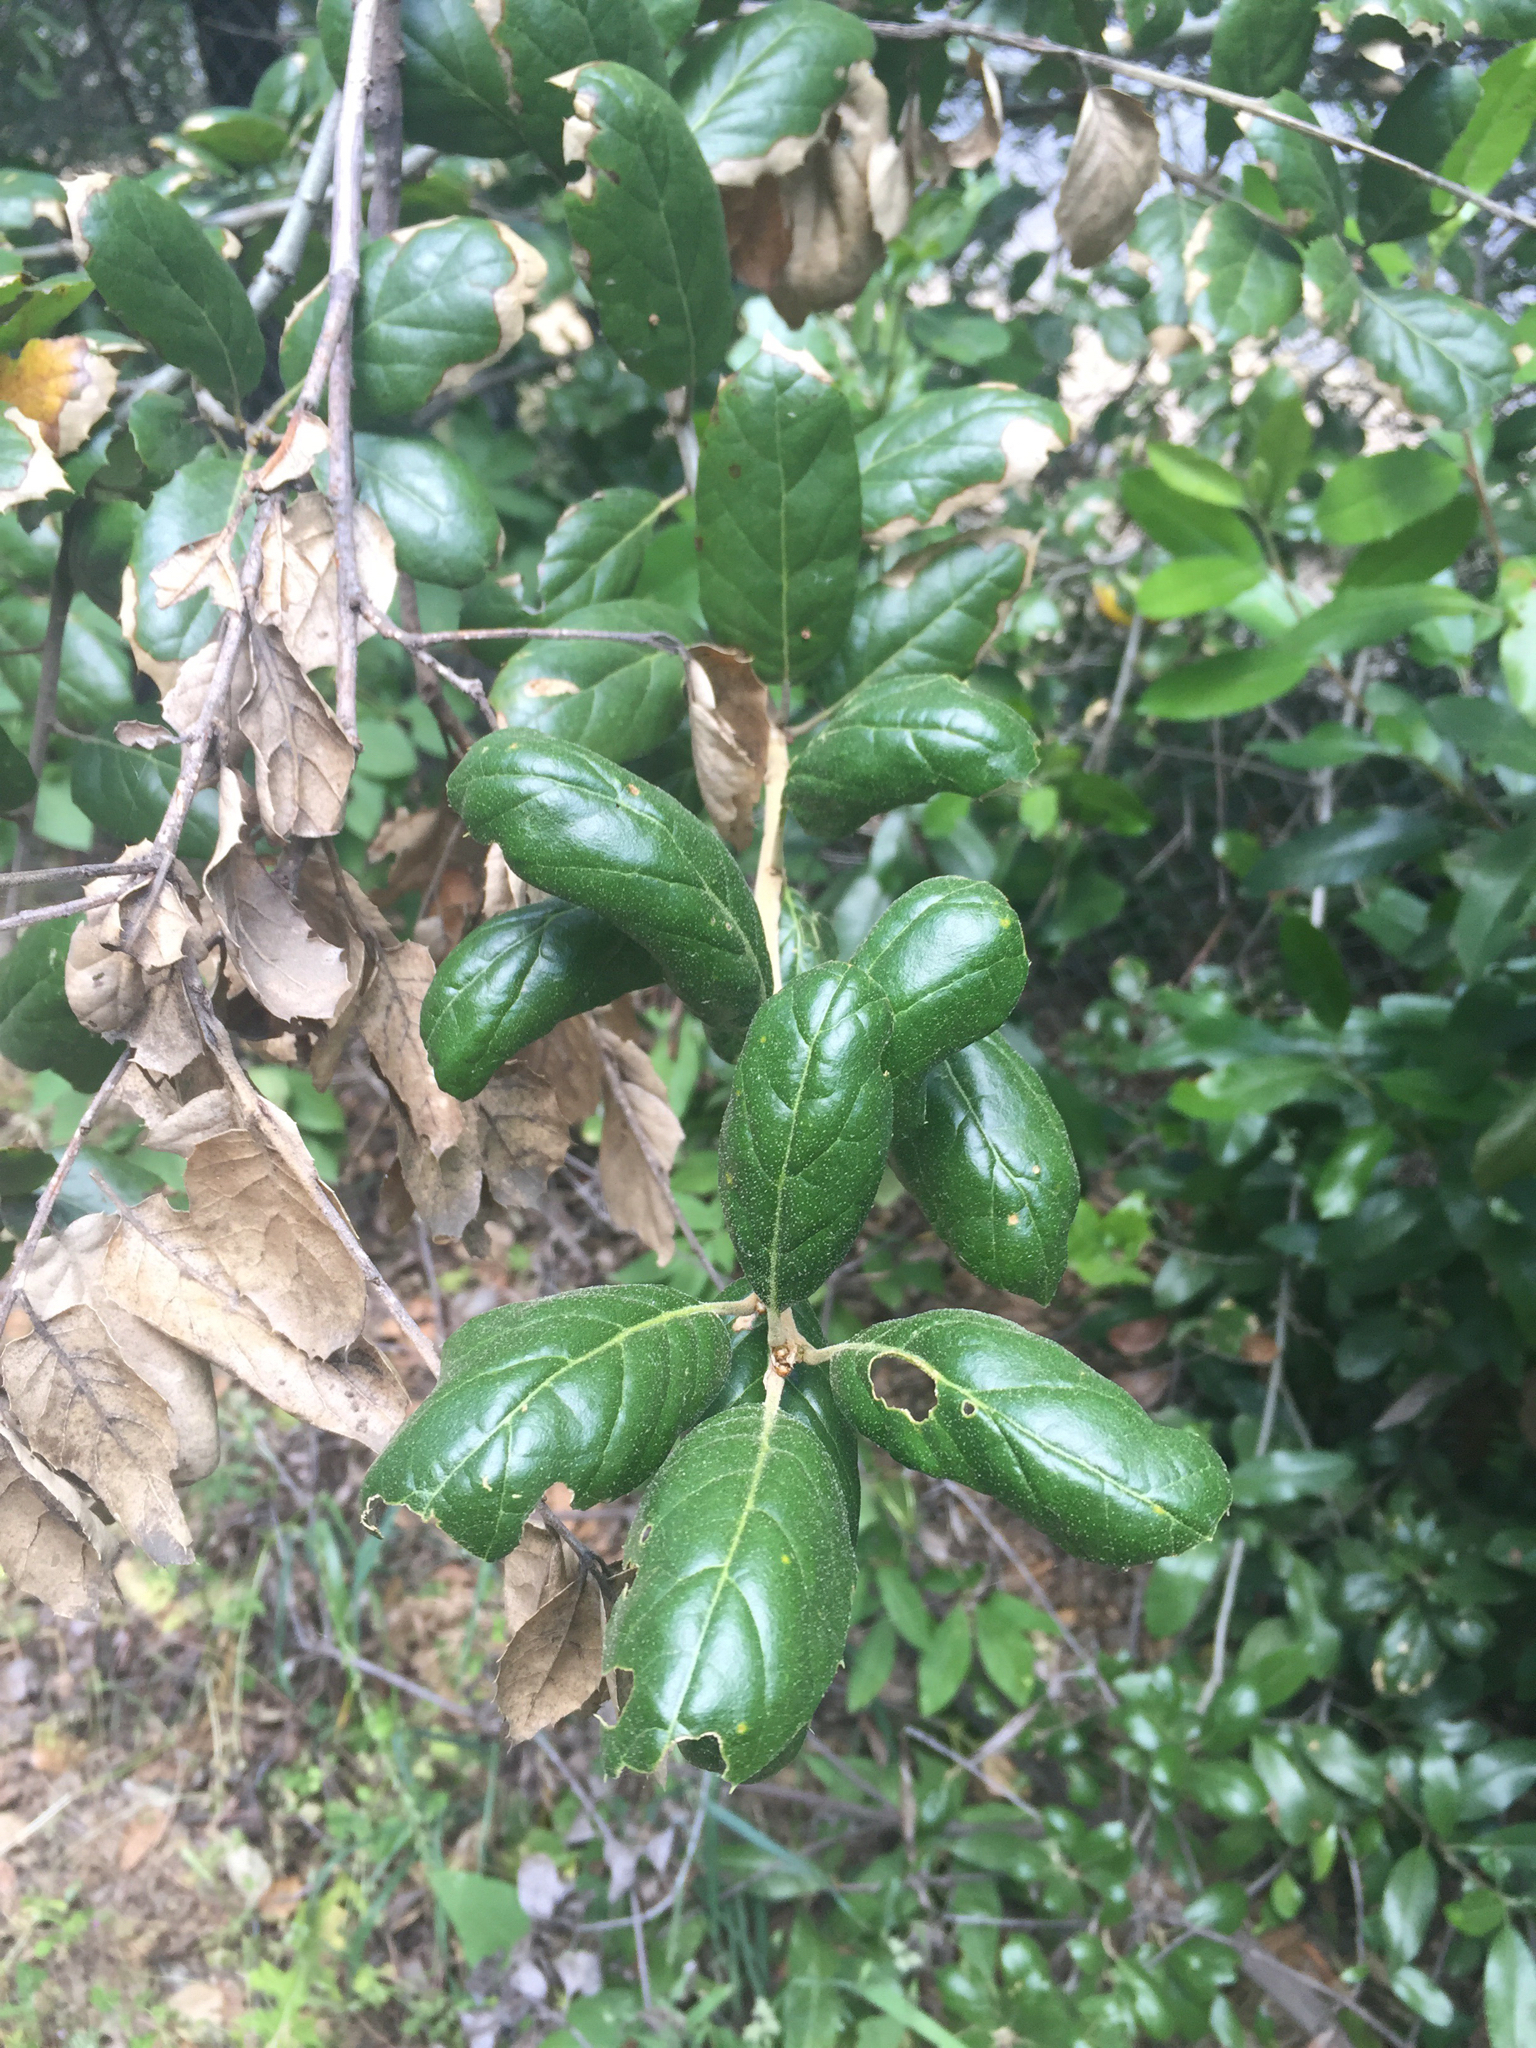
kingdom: Plantae
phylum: Tracheophyta
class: Magnoliopsida
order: Fagales
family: Fagaceae
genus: Quercus
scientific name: Quercus agrifolia
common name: California live oak
